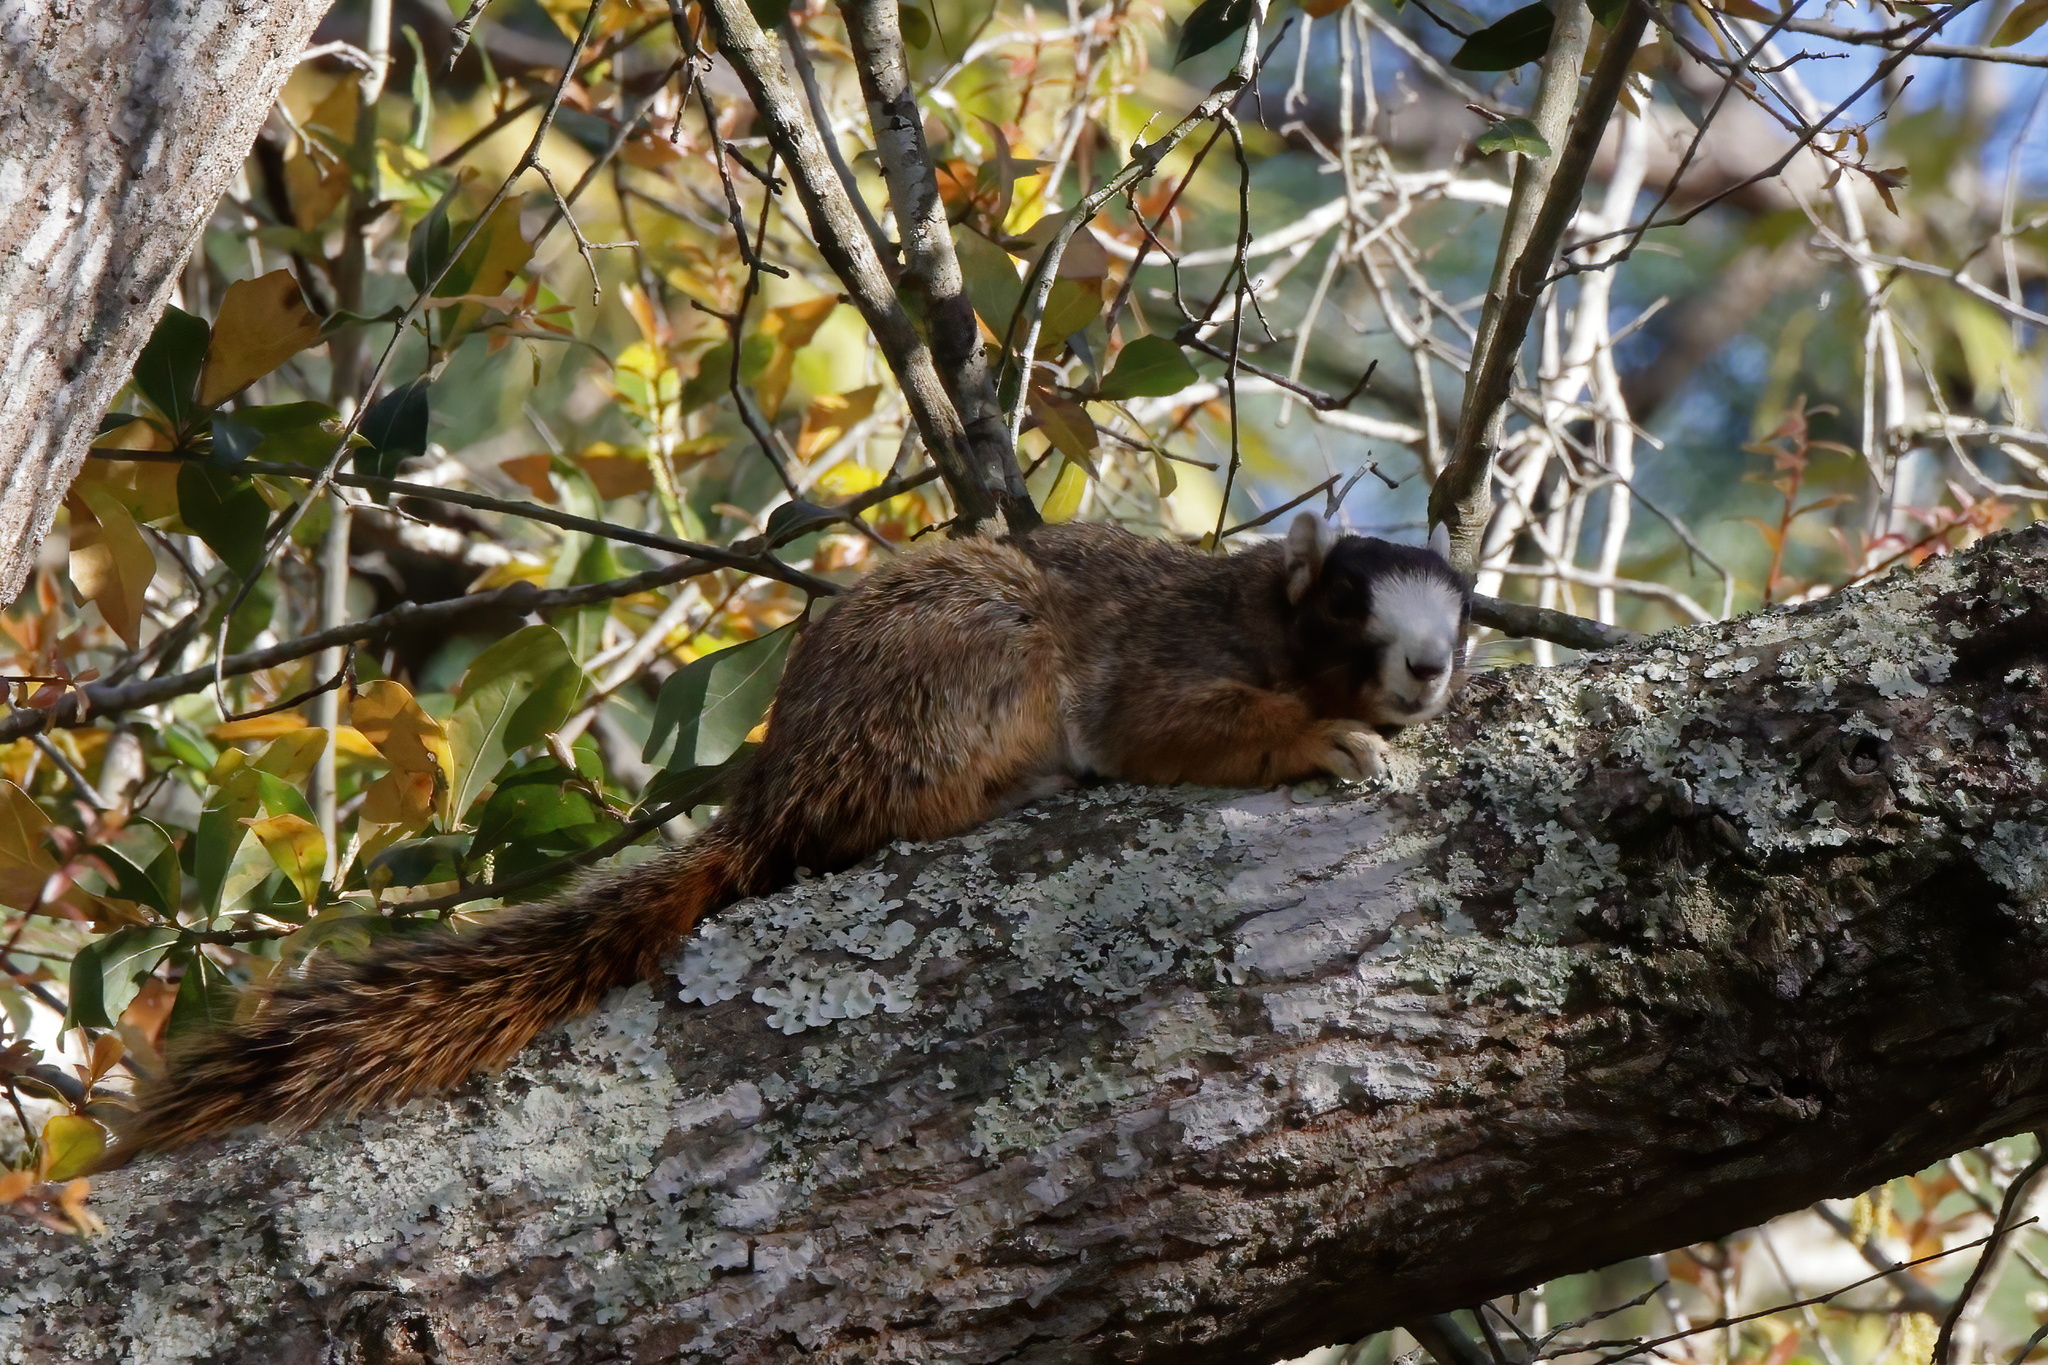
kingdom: Animalia
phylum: Chordata
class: Mammalia
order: Rodentia
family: Sciuridae
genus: Sciurus
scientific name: Sciurus niger
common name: Fox squirrel
